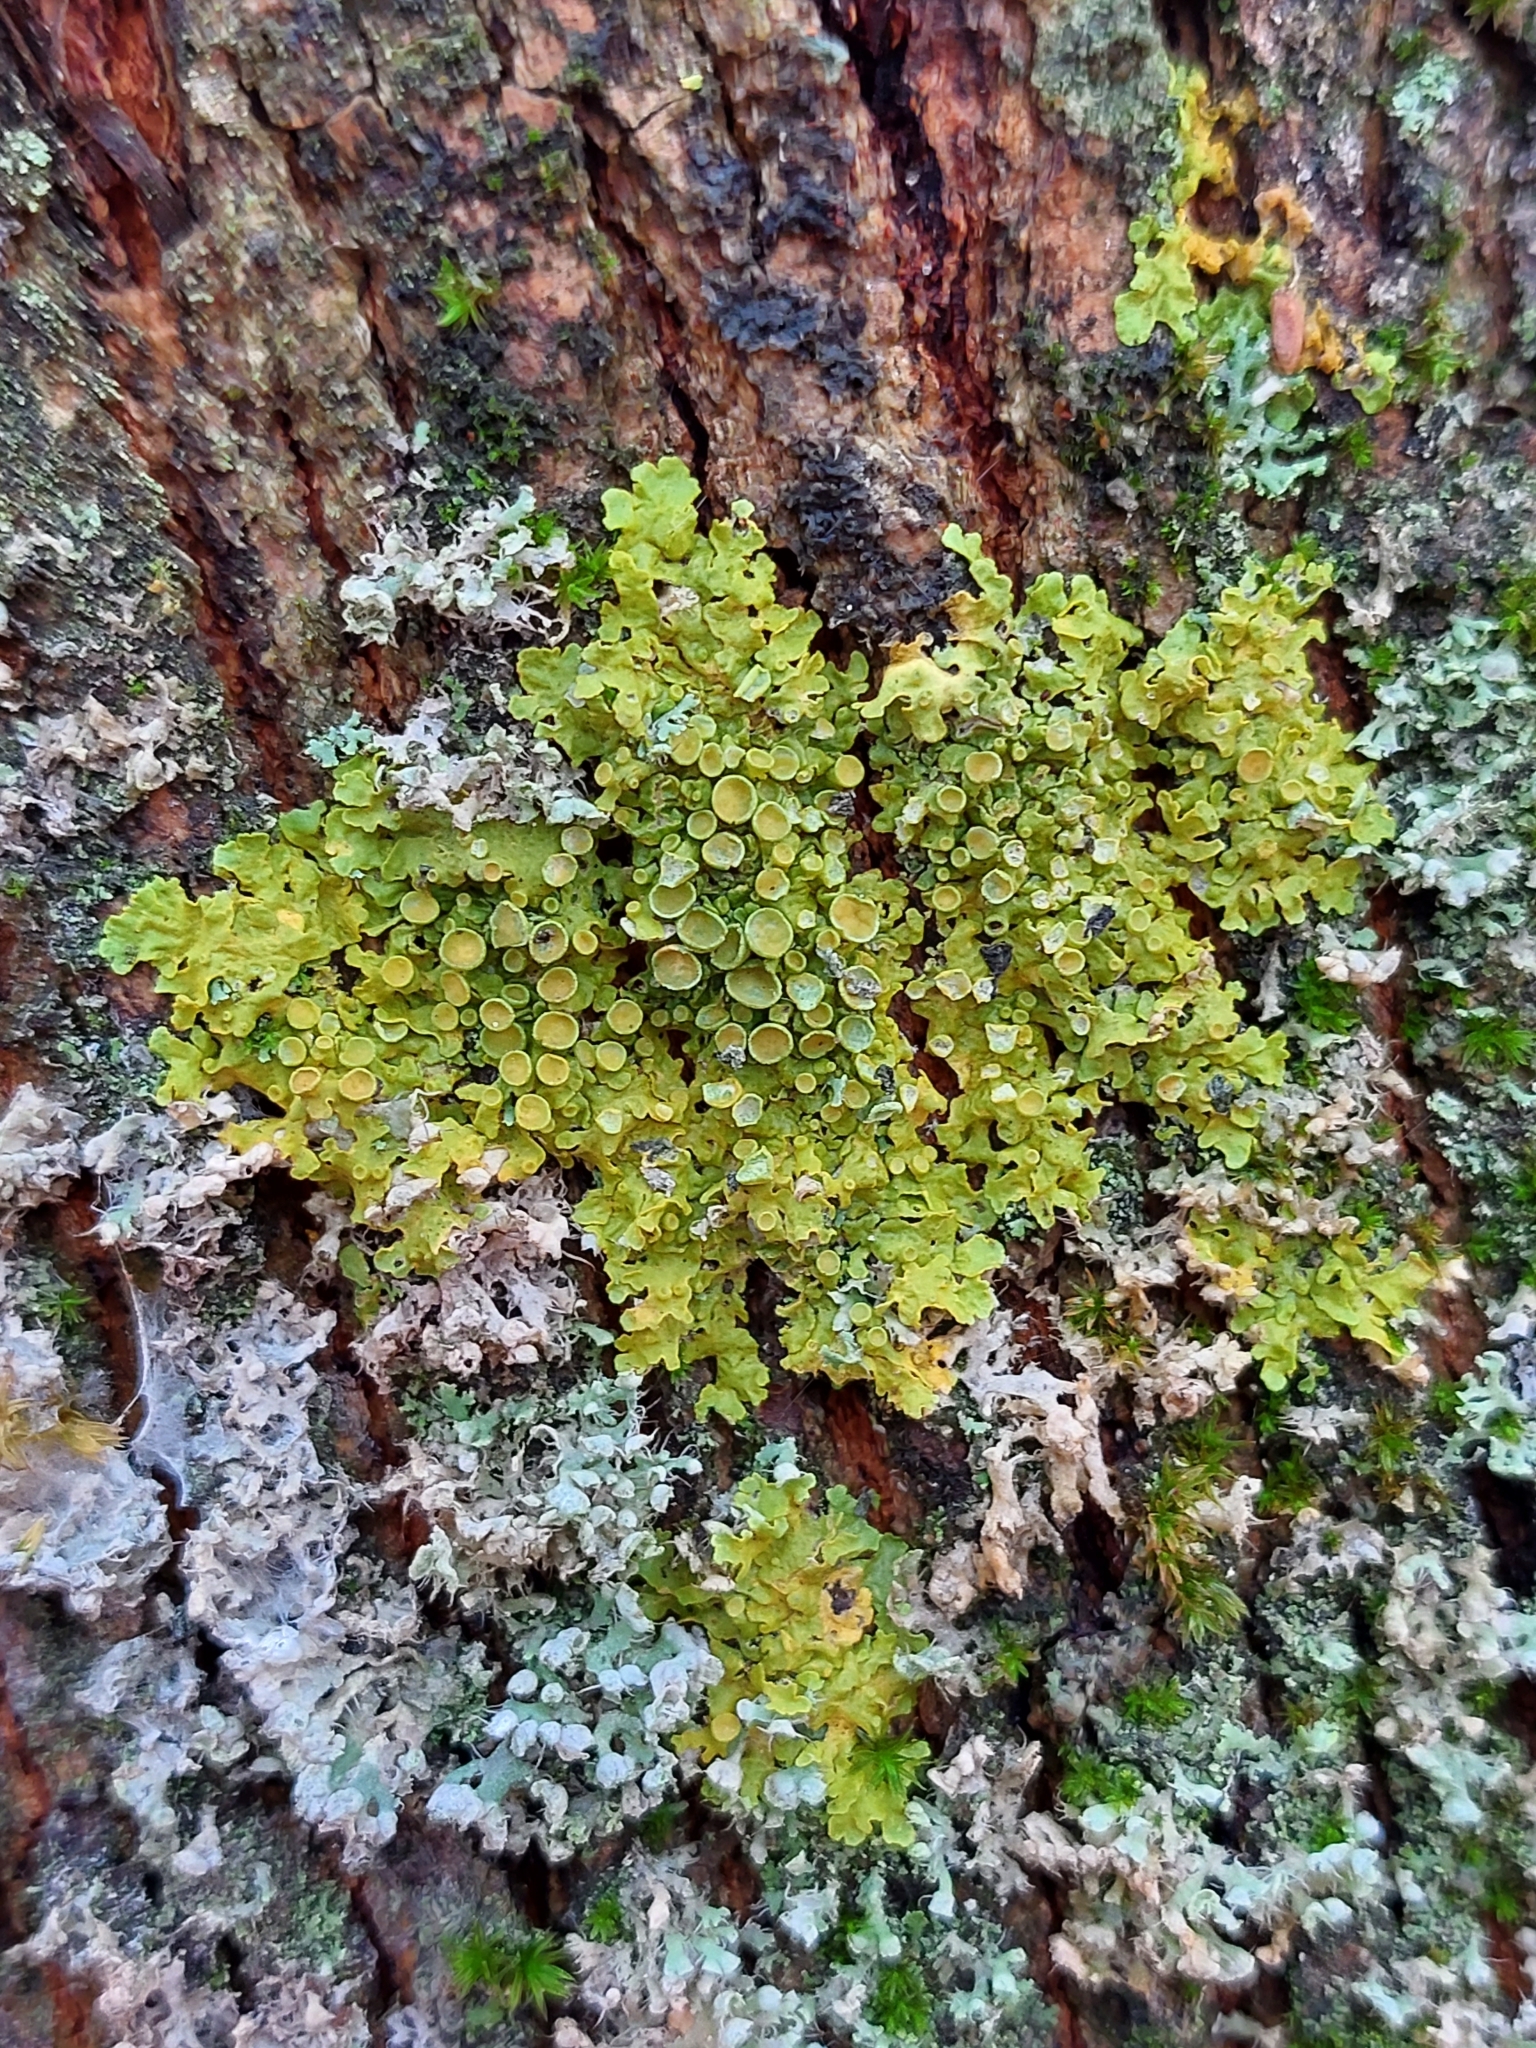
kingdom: Fungi
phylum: Ascomycota
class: Lecanoromycetes
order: Teloschistales
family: Teloschistaceae
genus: Xanthoria
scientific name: Xanthoria parietina
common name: Common orange lichen
